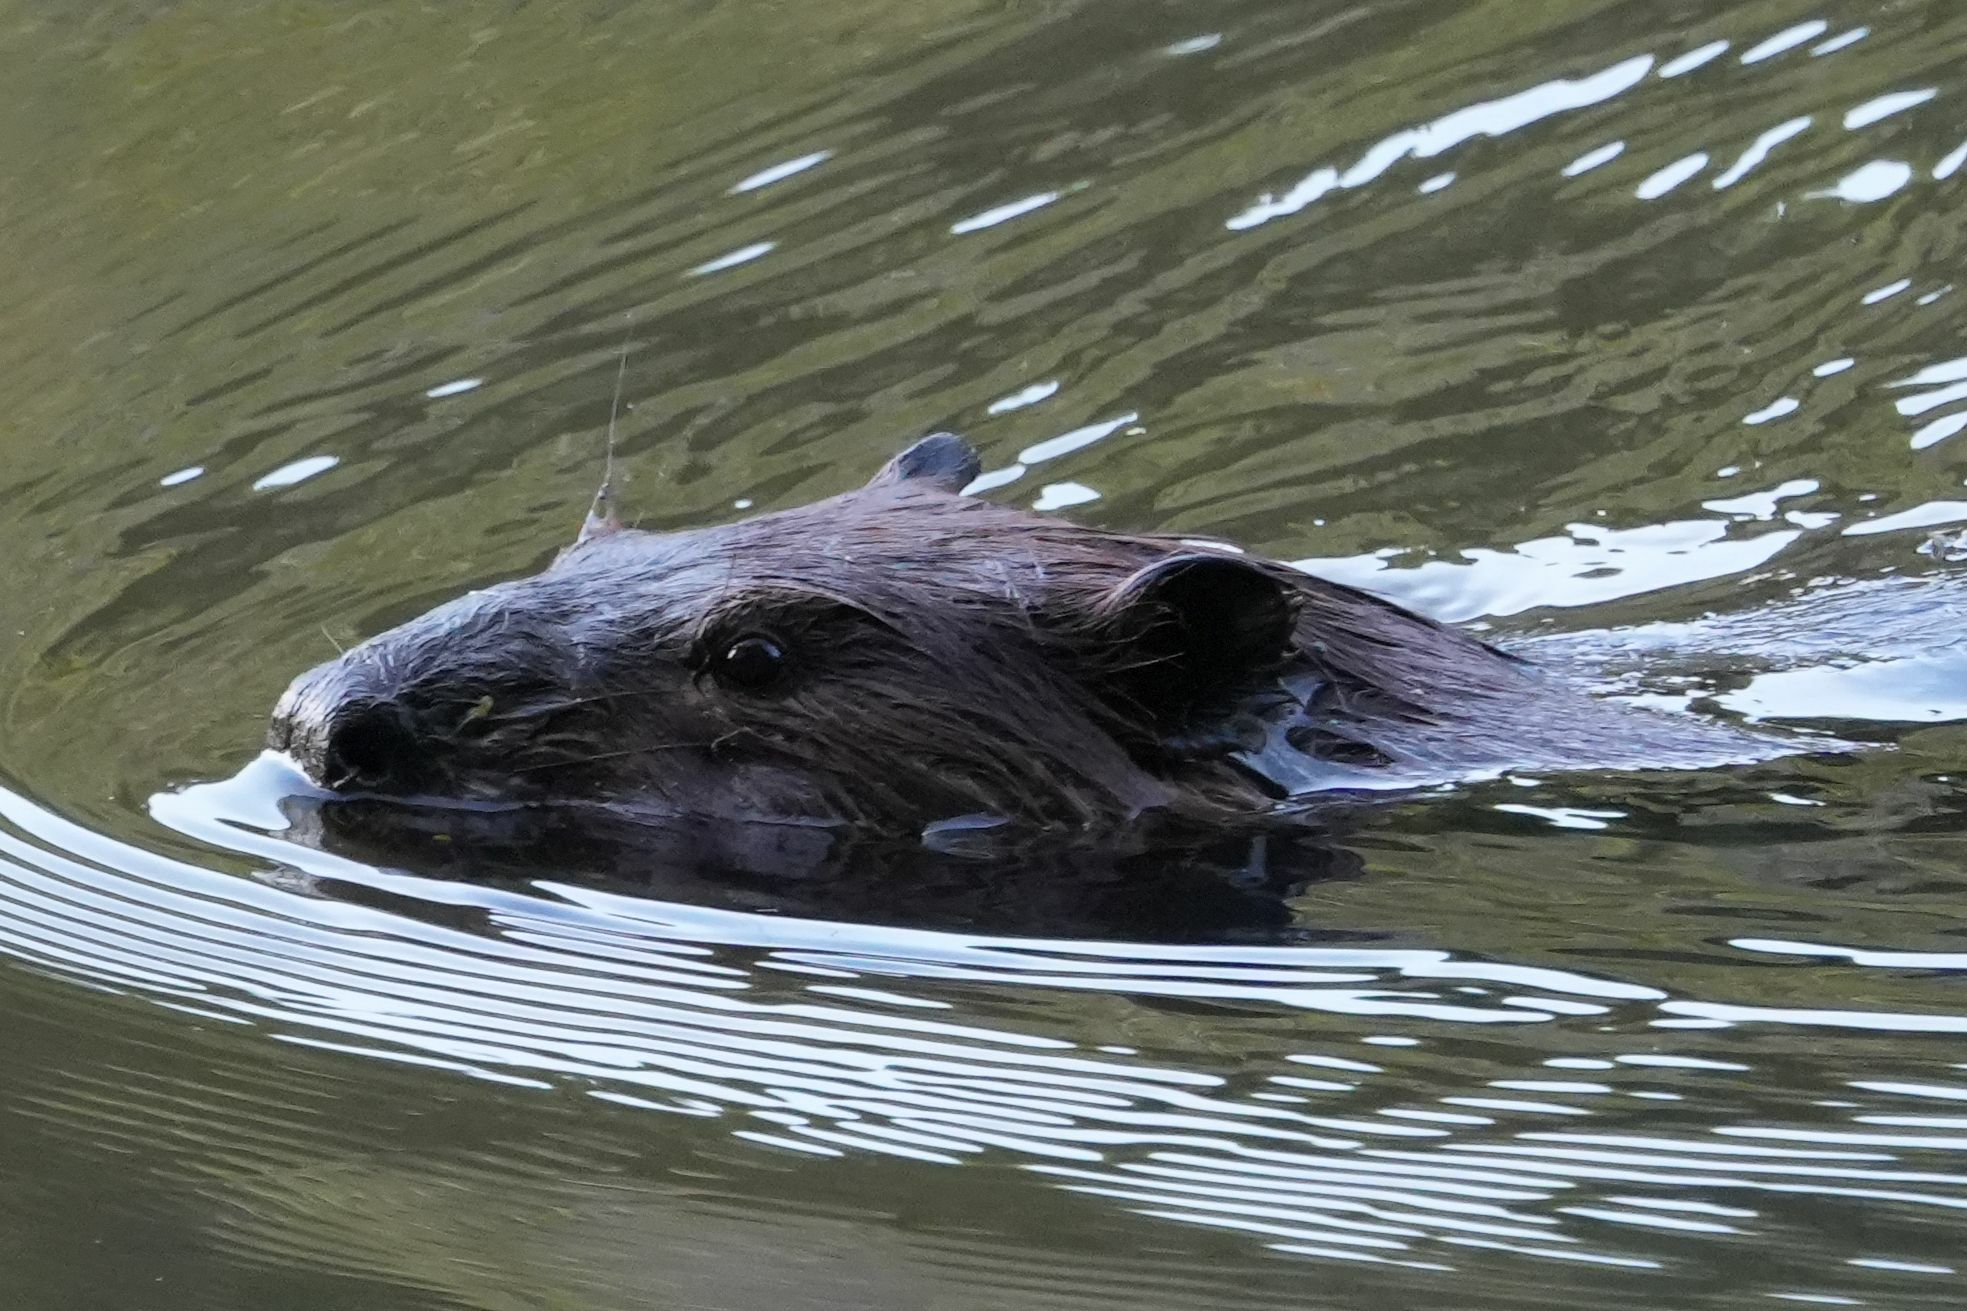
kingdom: Animalia
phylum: Chordata
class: Mammalia
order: Rodentia
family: Castoridae
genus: Castor
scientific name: Castor canadensis
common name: American beaver
